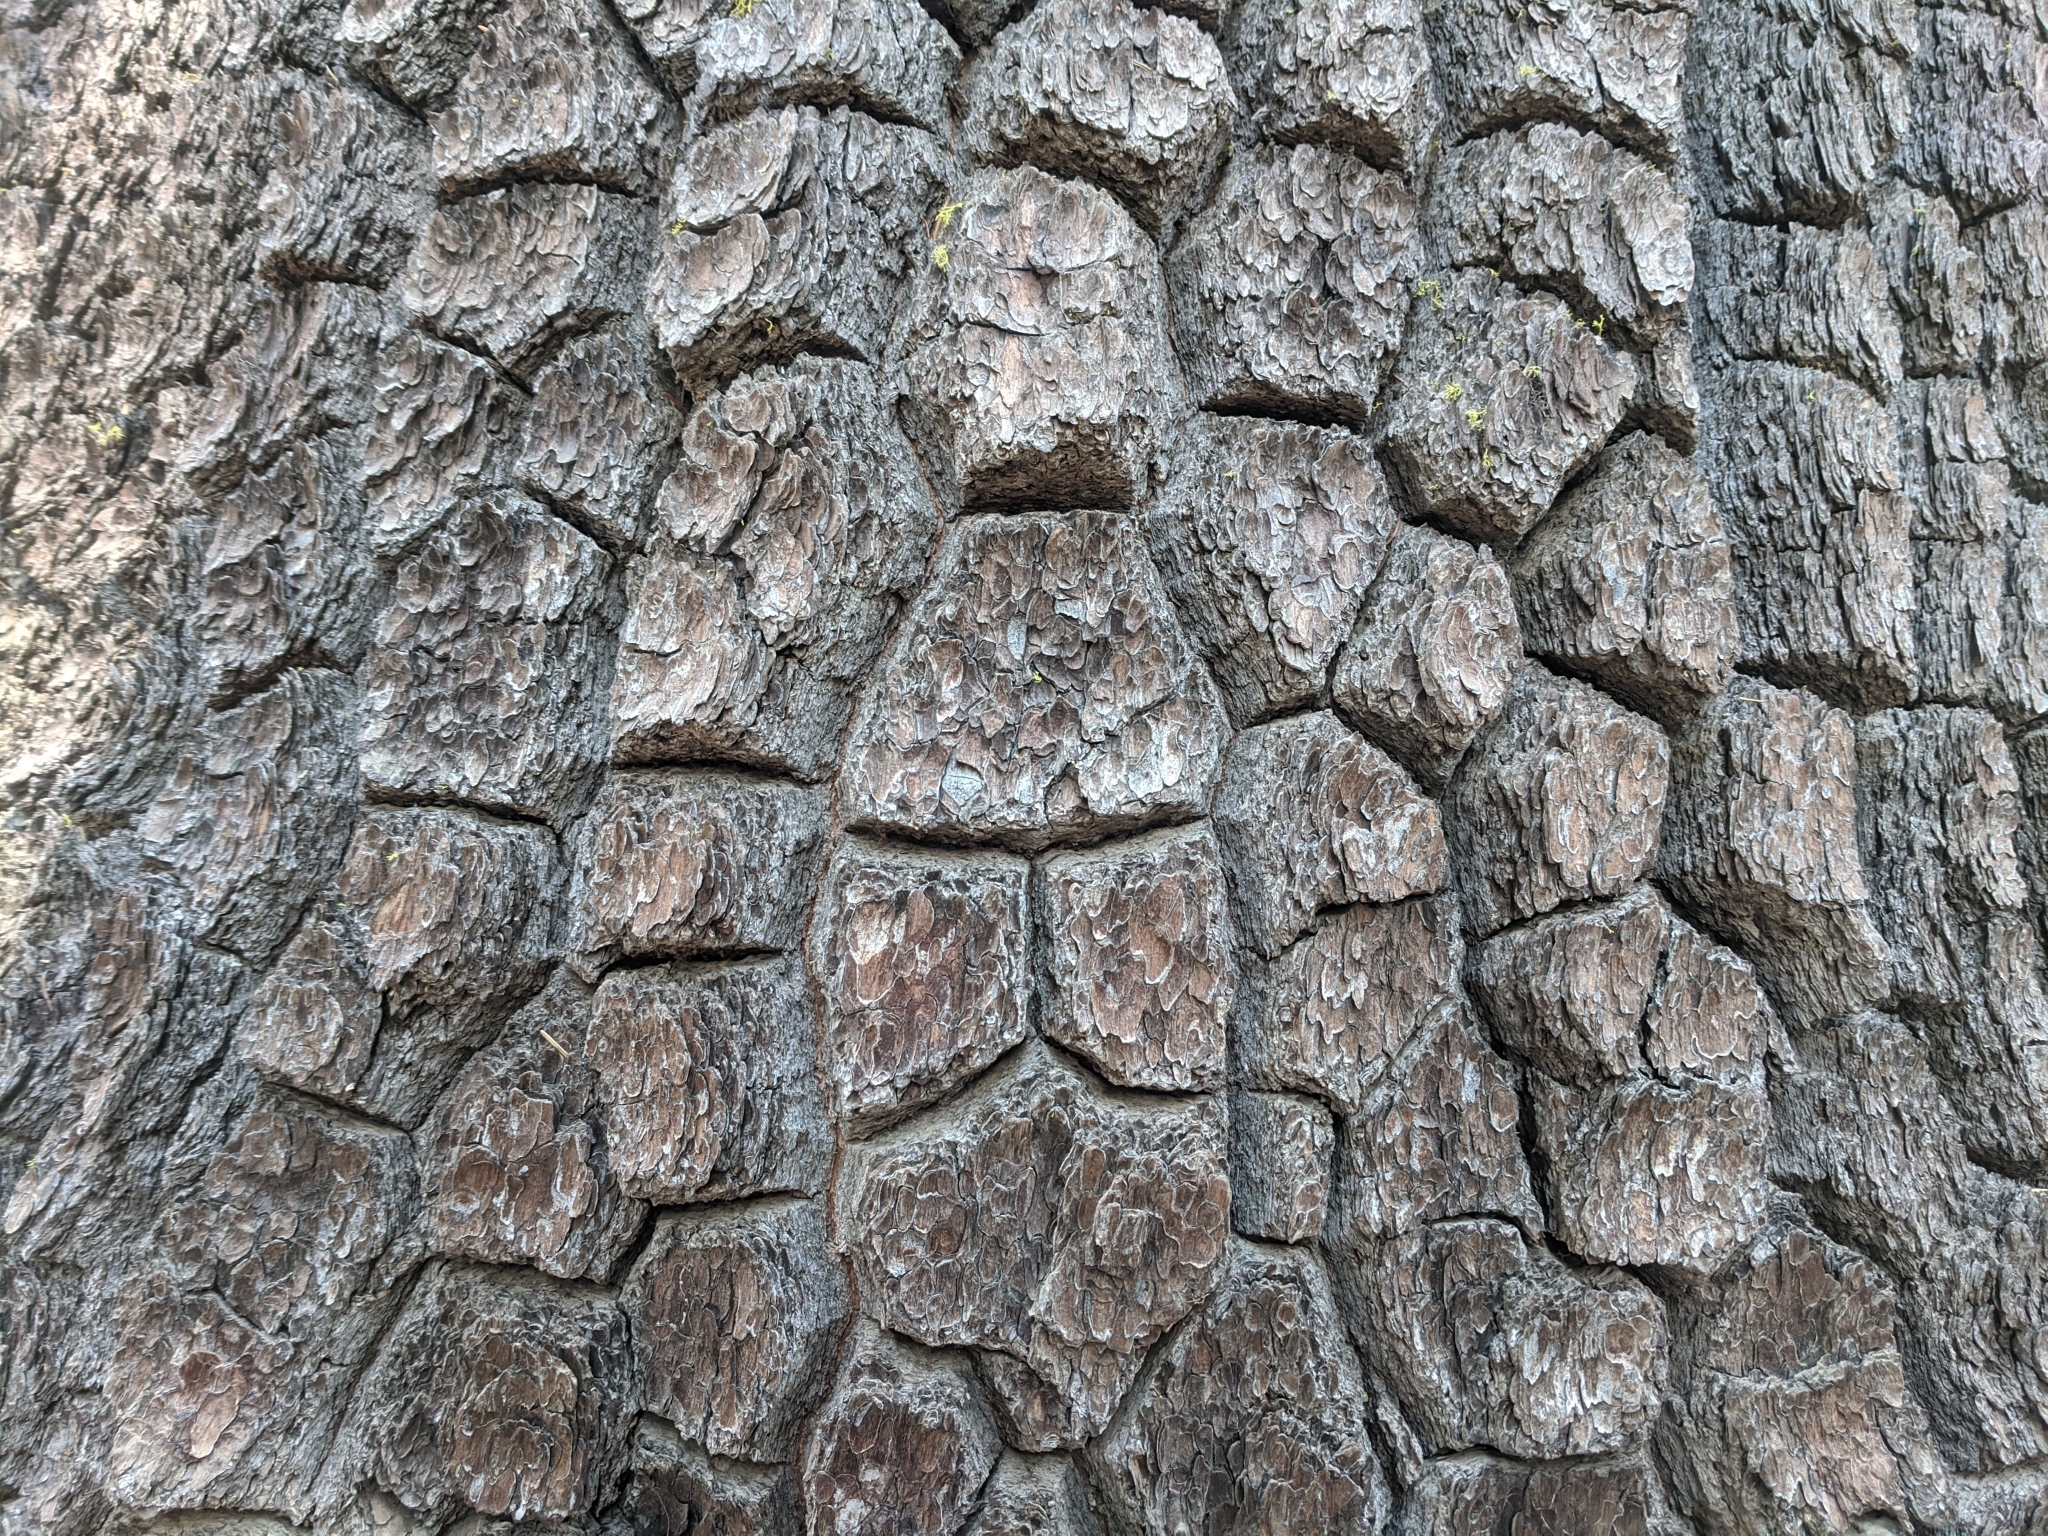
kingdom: Plantae
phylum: Tracheophyta
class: Pinopsida
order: Pinales
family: Pinaceae
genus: Pinus
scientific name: Pinus monticola
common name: Western white pine
